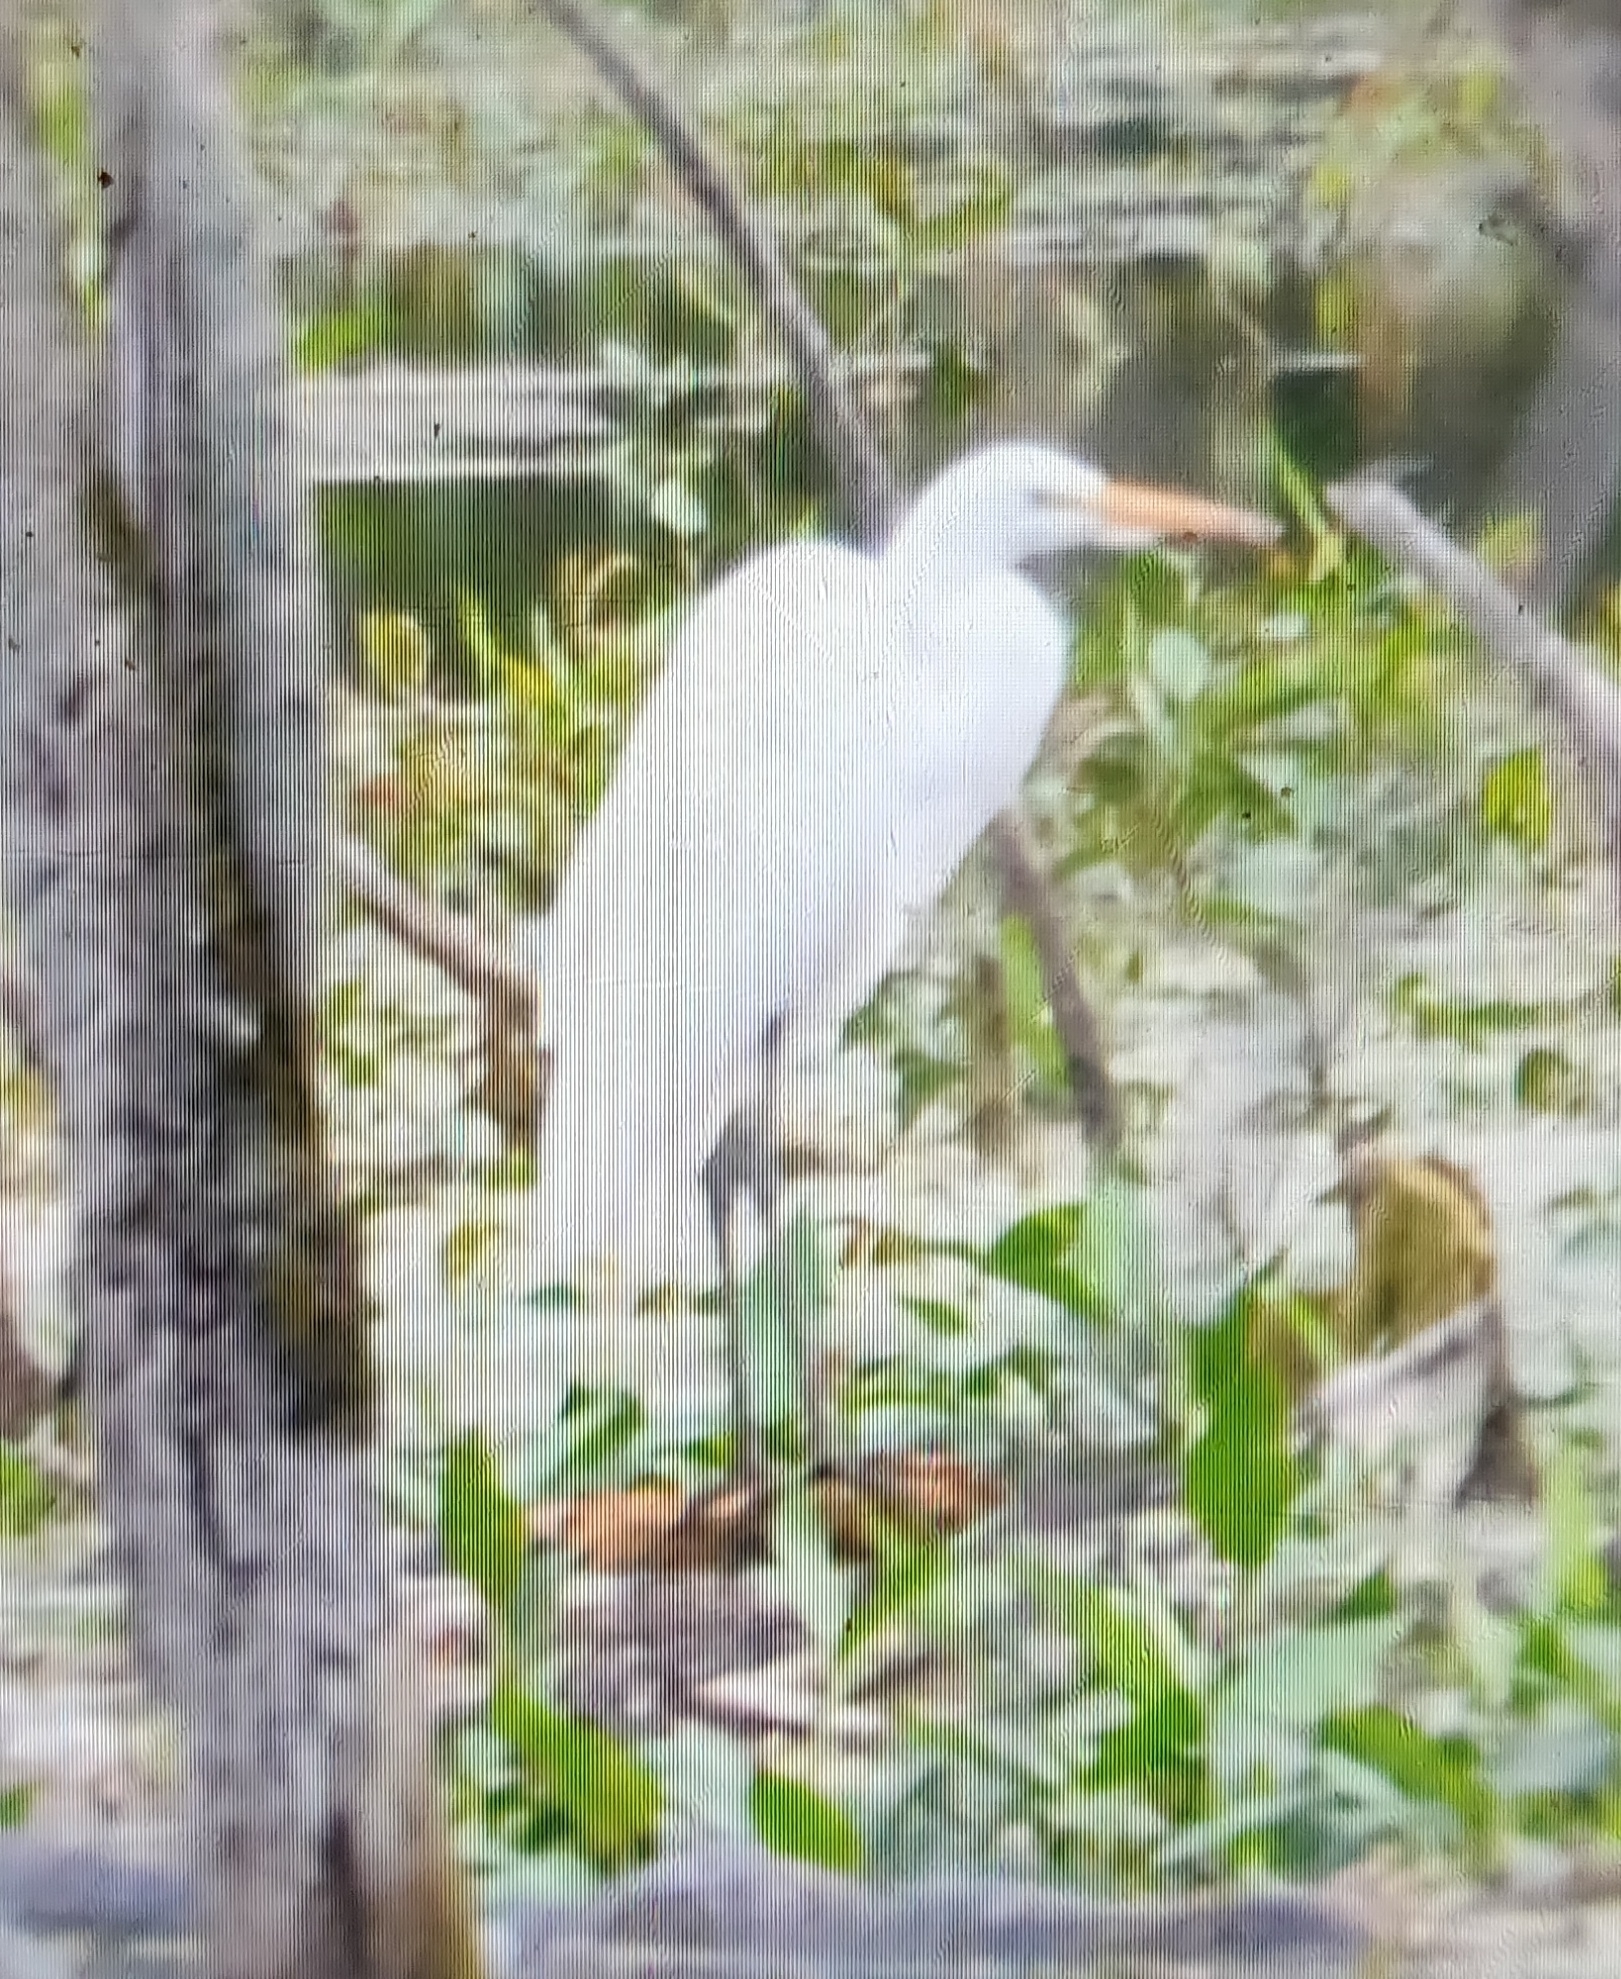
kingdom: Animalia
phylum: Chordata
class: Aves
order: Pelecaniformes
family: Ardeidae
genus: Ardea
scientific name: Ardea alba
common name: Great egret
